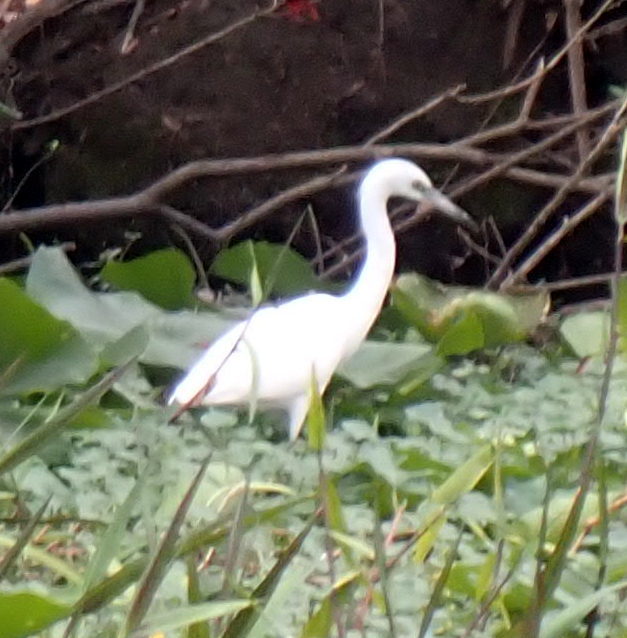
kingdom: Animalia
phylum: Chordata
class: Aves
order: Pelecaniformes
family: Ardeidae
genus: Egretta
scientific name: Egretta caerulea
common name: Little blue heron
